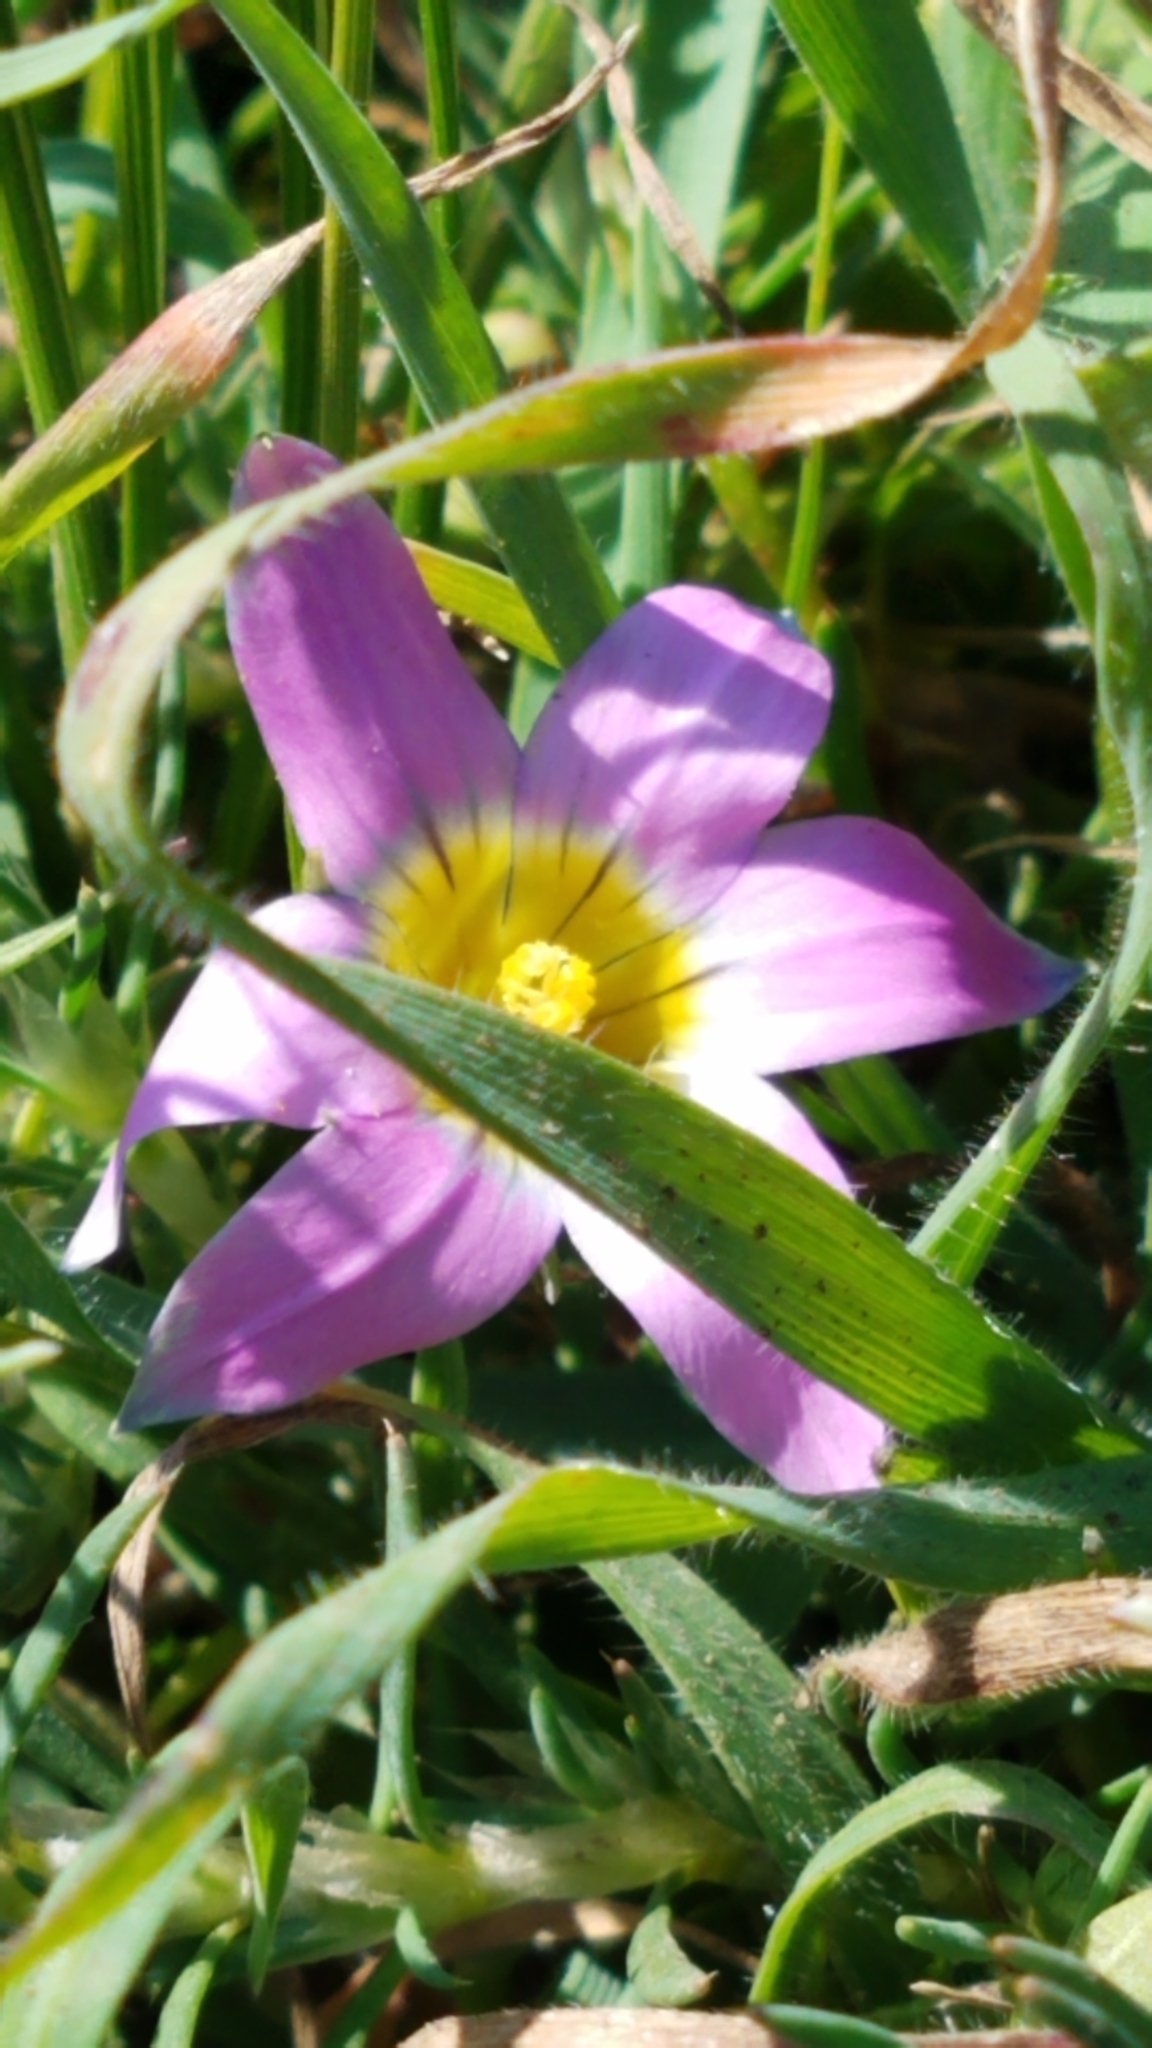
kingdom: Plantae
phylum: Tracheophyta
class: Liliopsida
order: Asparagales
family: Iridaceae
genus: Romulea
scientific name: Romulea rosea
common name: Oniongrass
